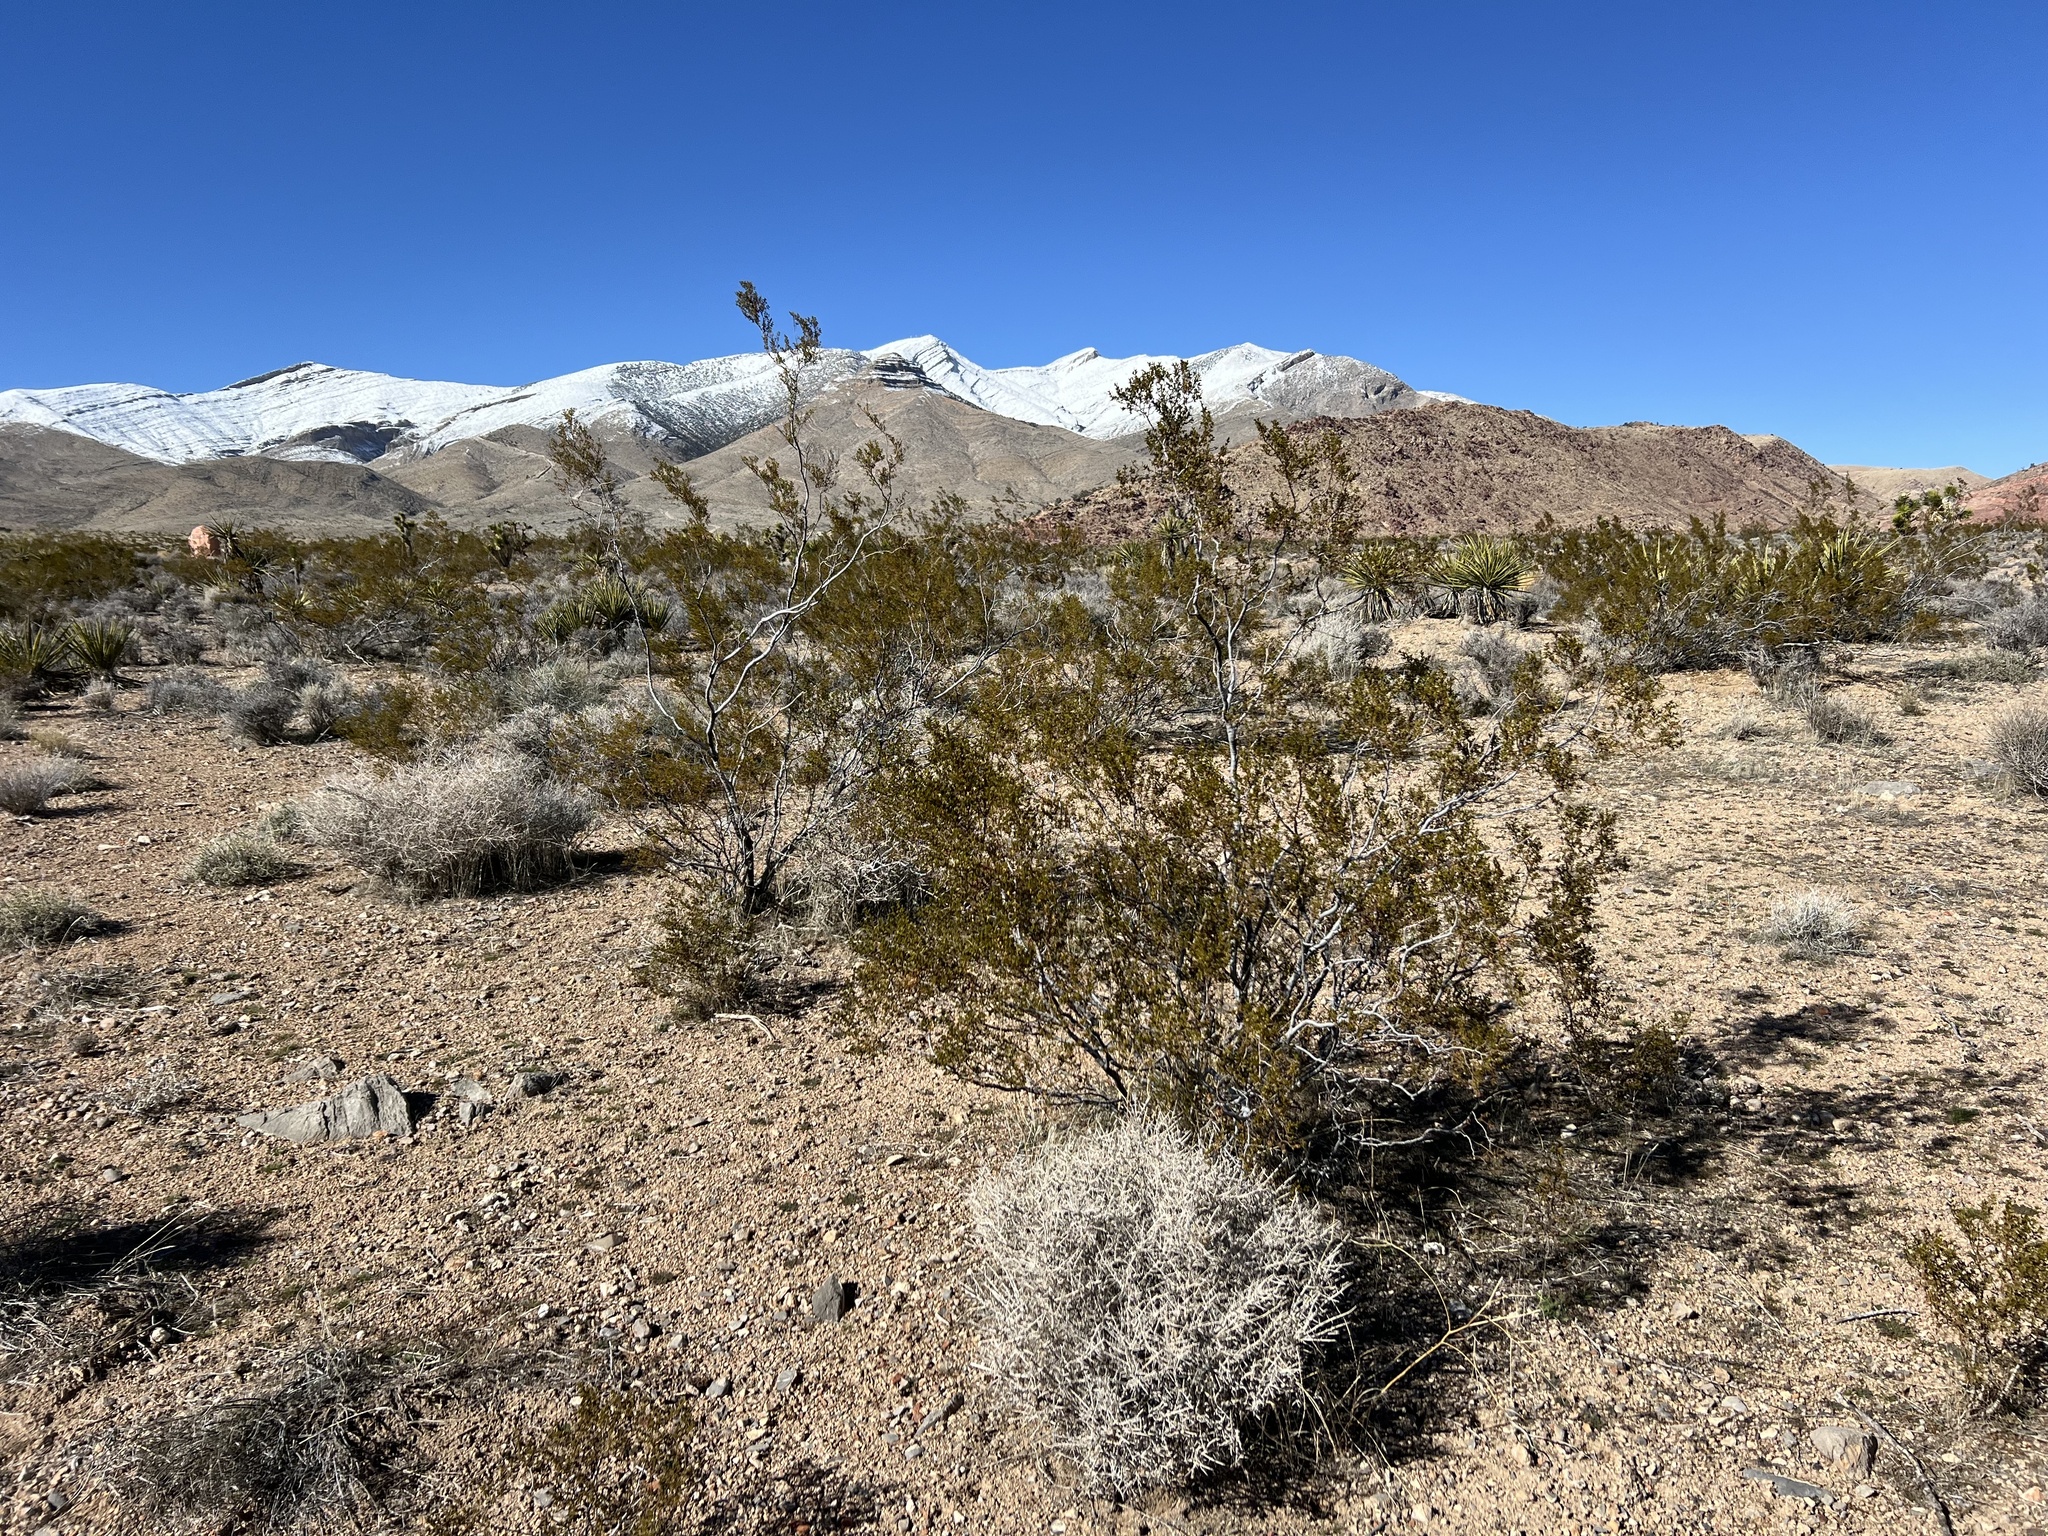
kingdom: Plantae
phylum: Tracheophyta
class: Magnoliopsida
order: Zygophyllales
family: Zygophyllaceae
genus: Larrea
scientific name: Larrea tridentata
